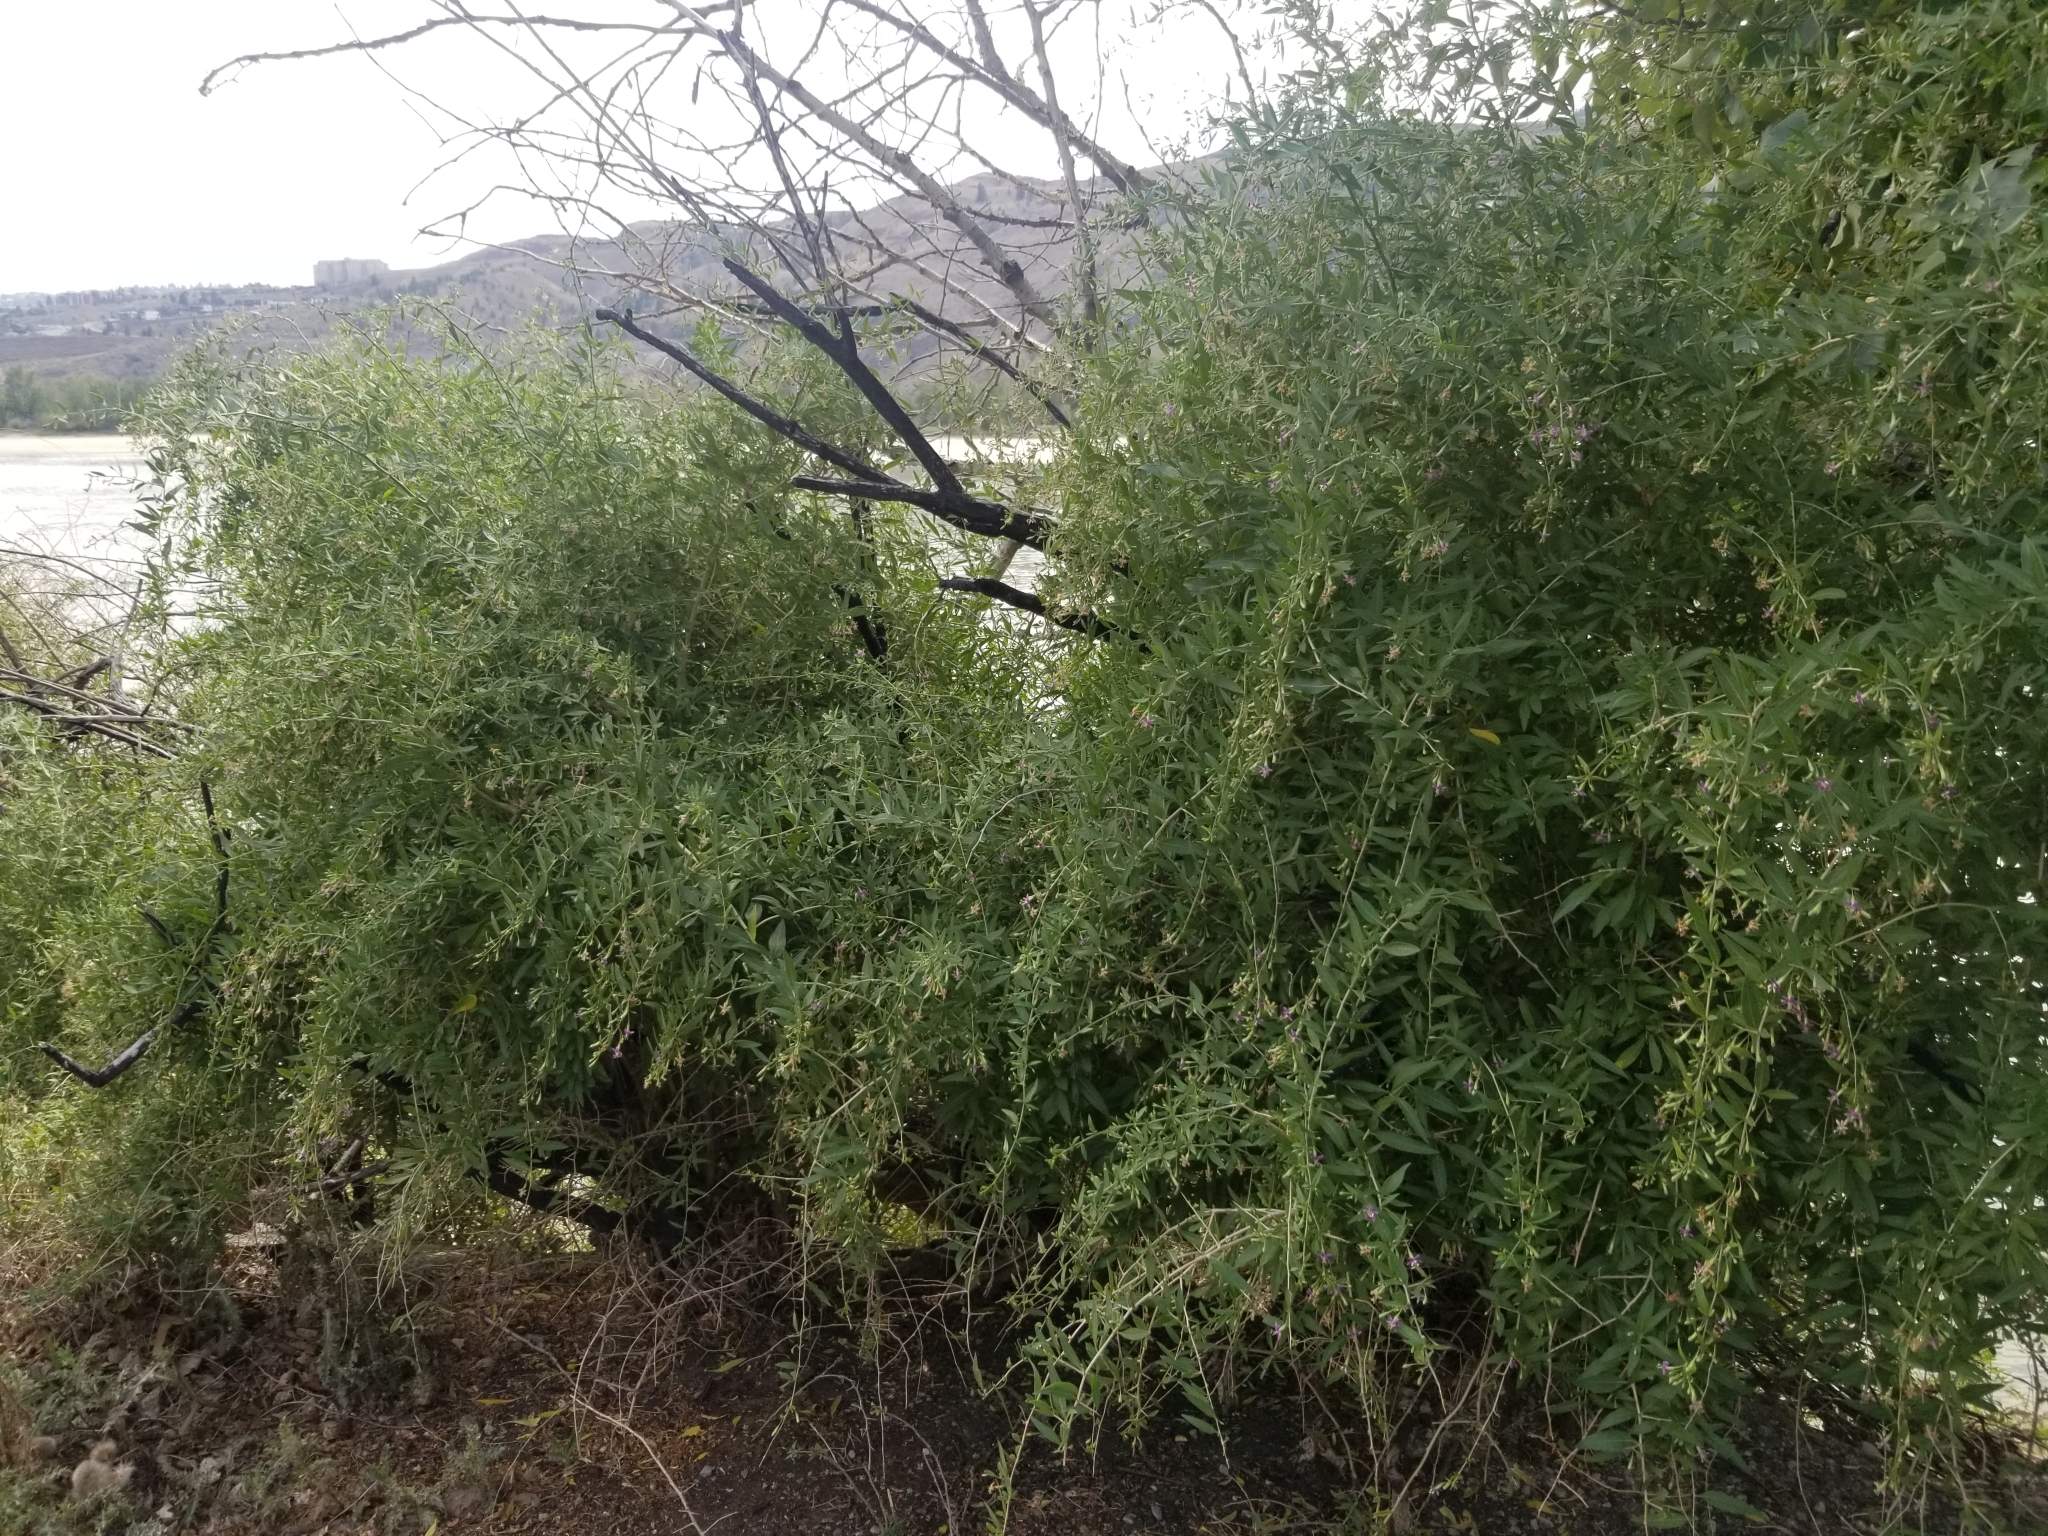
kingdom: Plantae
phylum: Tracheophyta
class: Magnoliopsida
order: Solanales
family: Solanaceae
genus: Lycium
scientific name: Lycium barbarum
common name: Duke of argyll's teaplant
